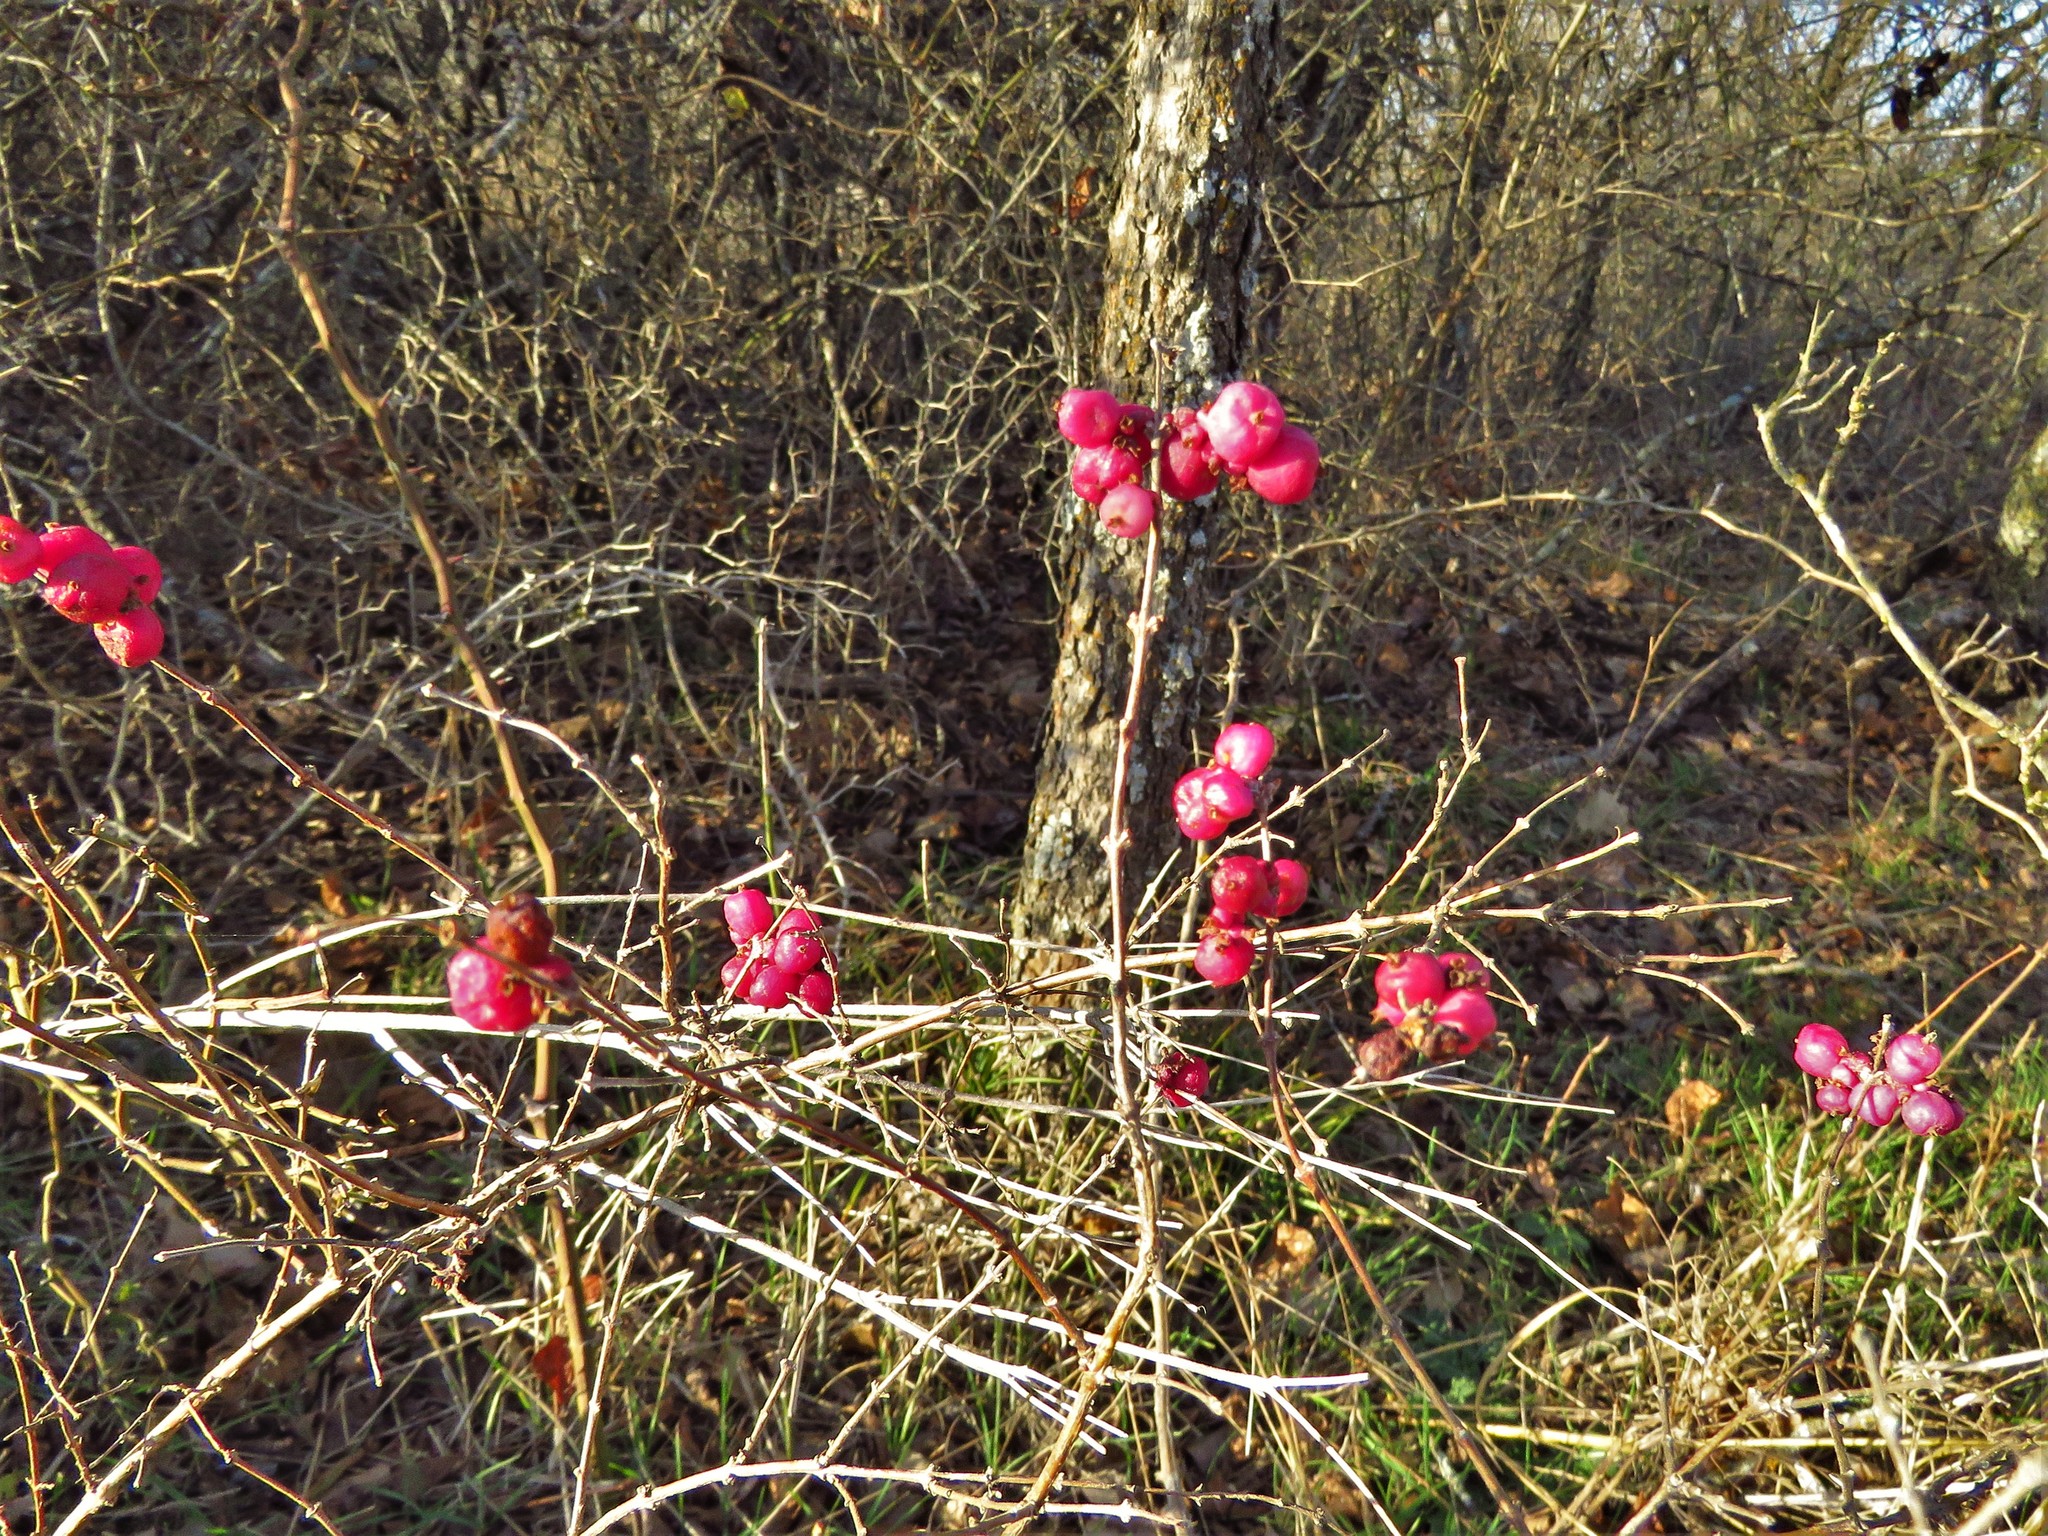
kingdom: Plantae
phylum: Tracheophyta
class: Magnoliopsida
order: Dipsacales
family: Caprifoliaceae
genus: Symphoricarpos
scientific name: Symphoricarpos orbiculatus
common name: Coralberry
